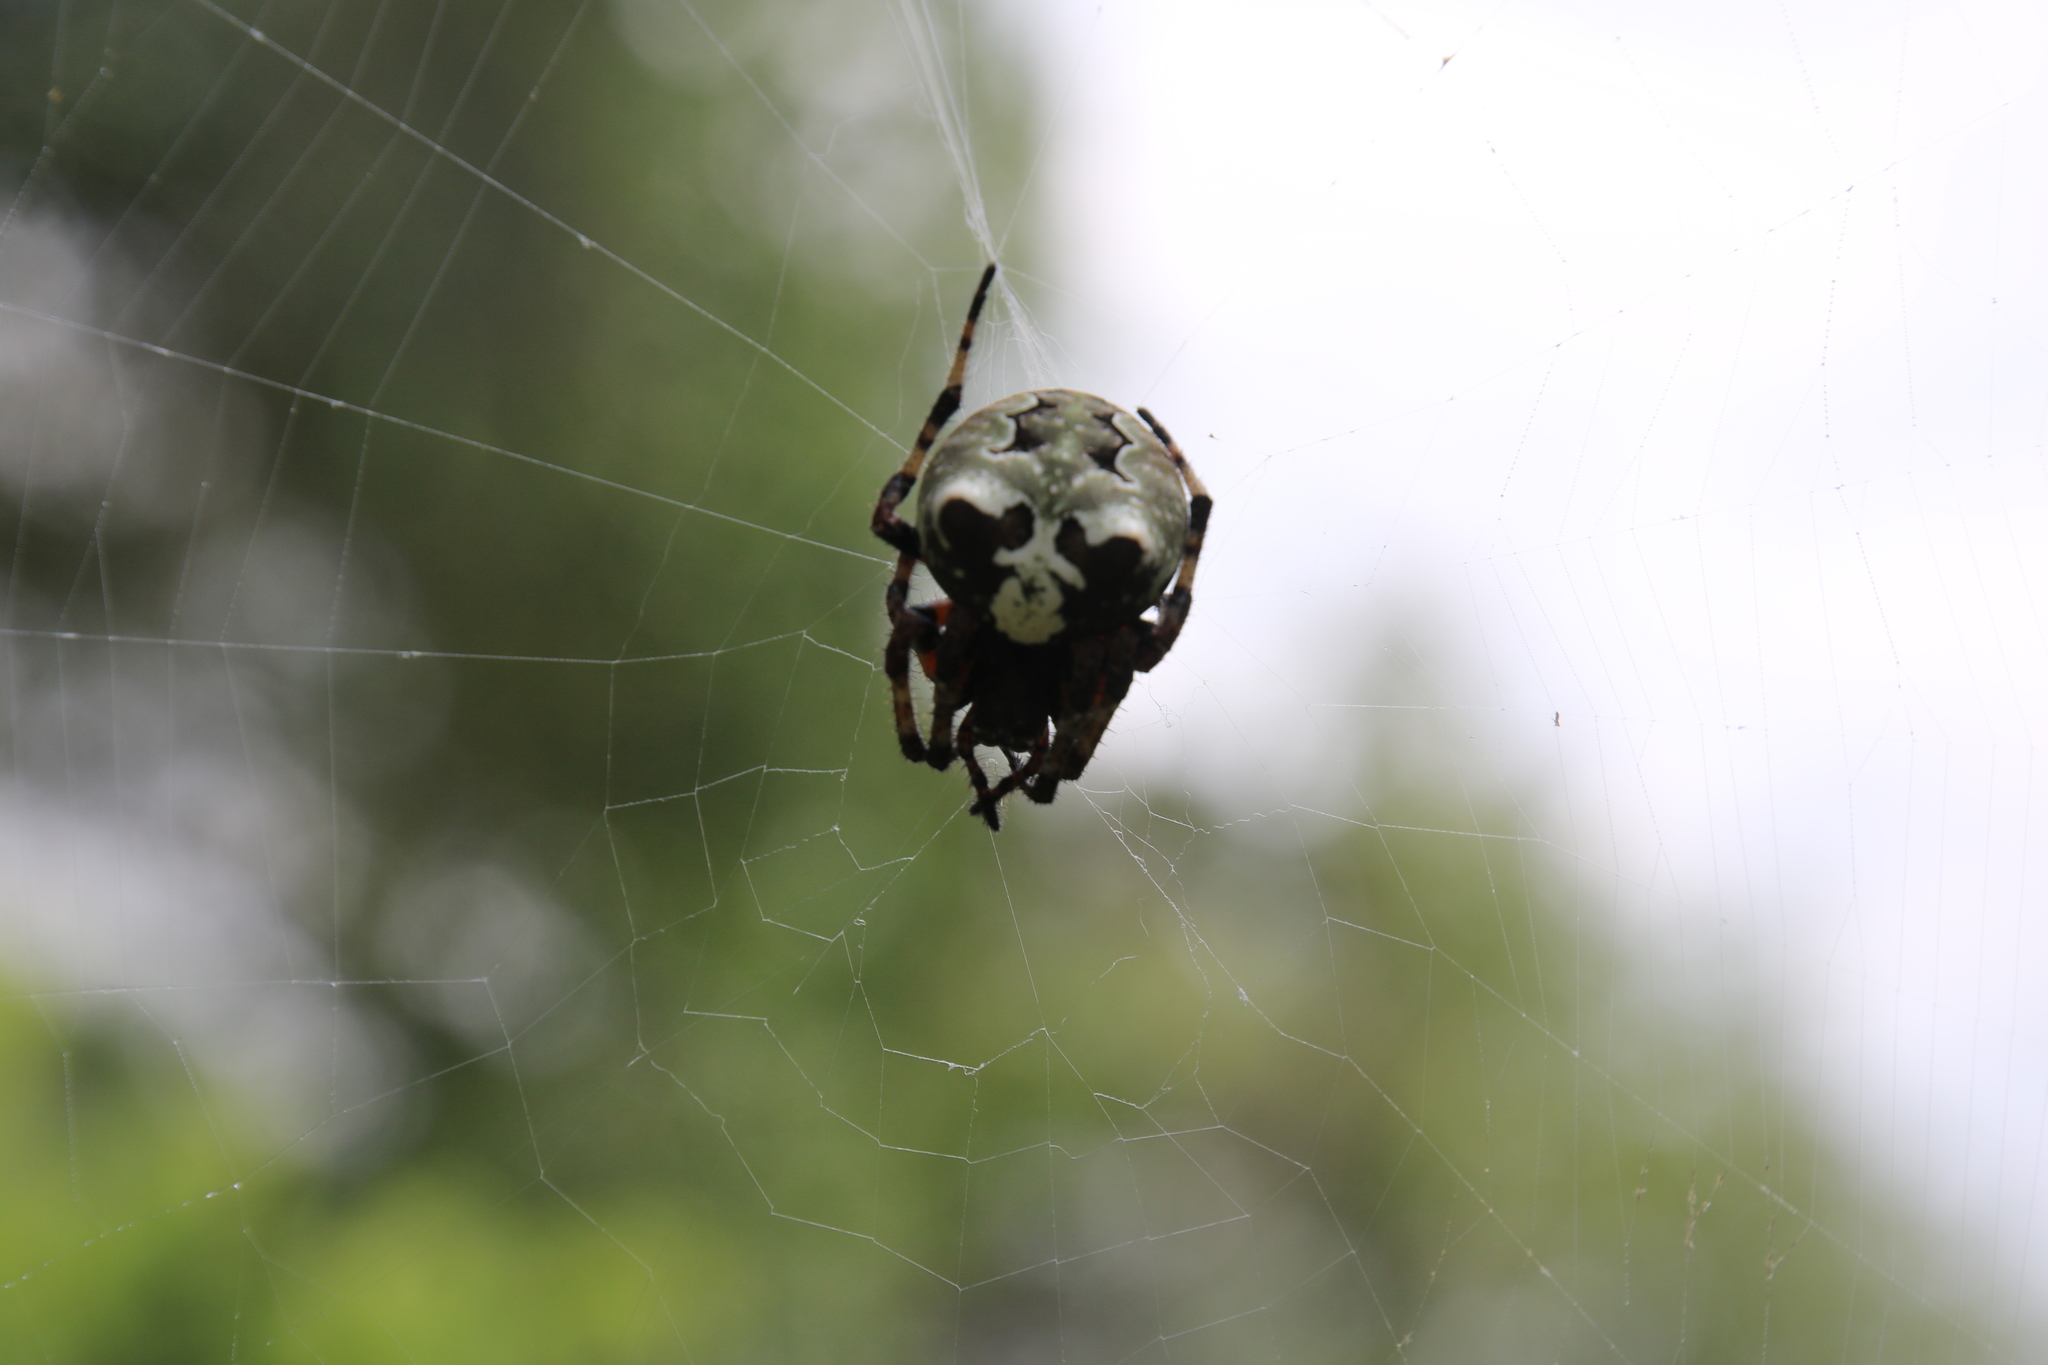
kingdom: Animalia
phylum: Arthropoda
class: Arachnida
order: Araneae
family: Araneidae
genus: Araneus
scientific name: Araneus bicentenarius
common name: Giant lichen orbweaver
